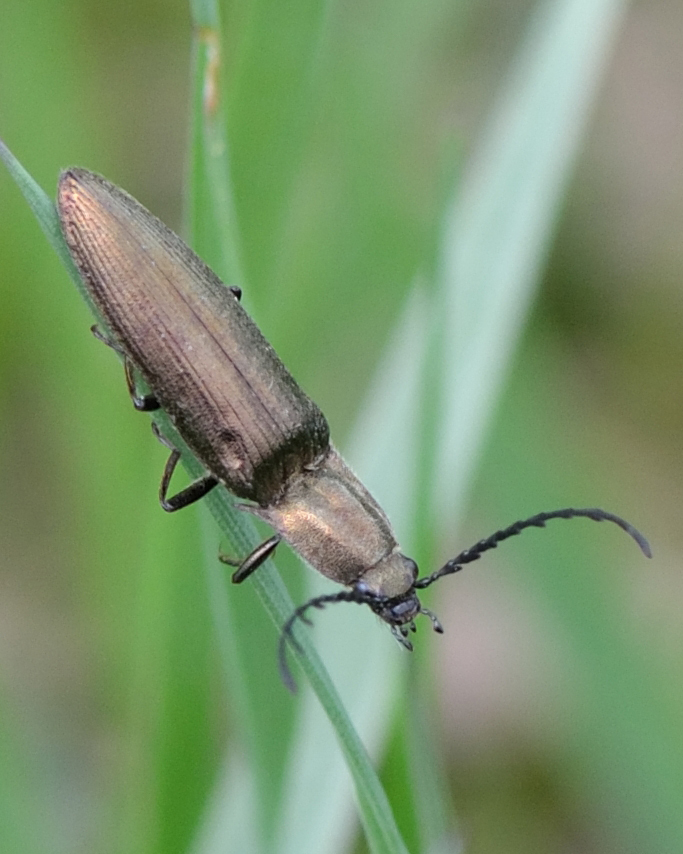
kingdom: Animalia
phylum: Arthropoda
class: Insecta
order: Coleoptera
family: Elateridae
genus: Ctenicera
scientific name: Ctenicera pectinicornis
